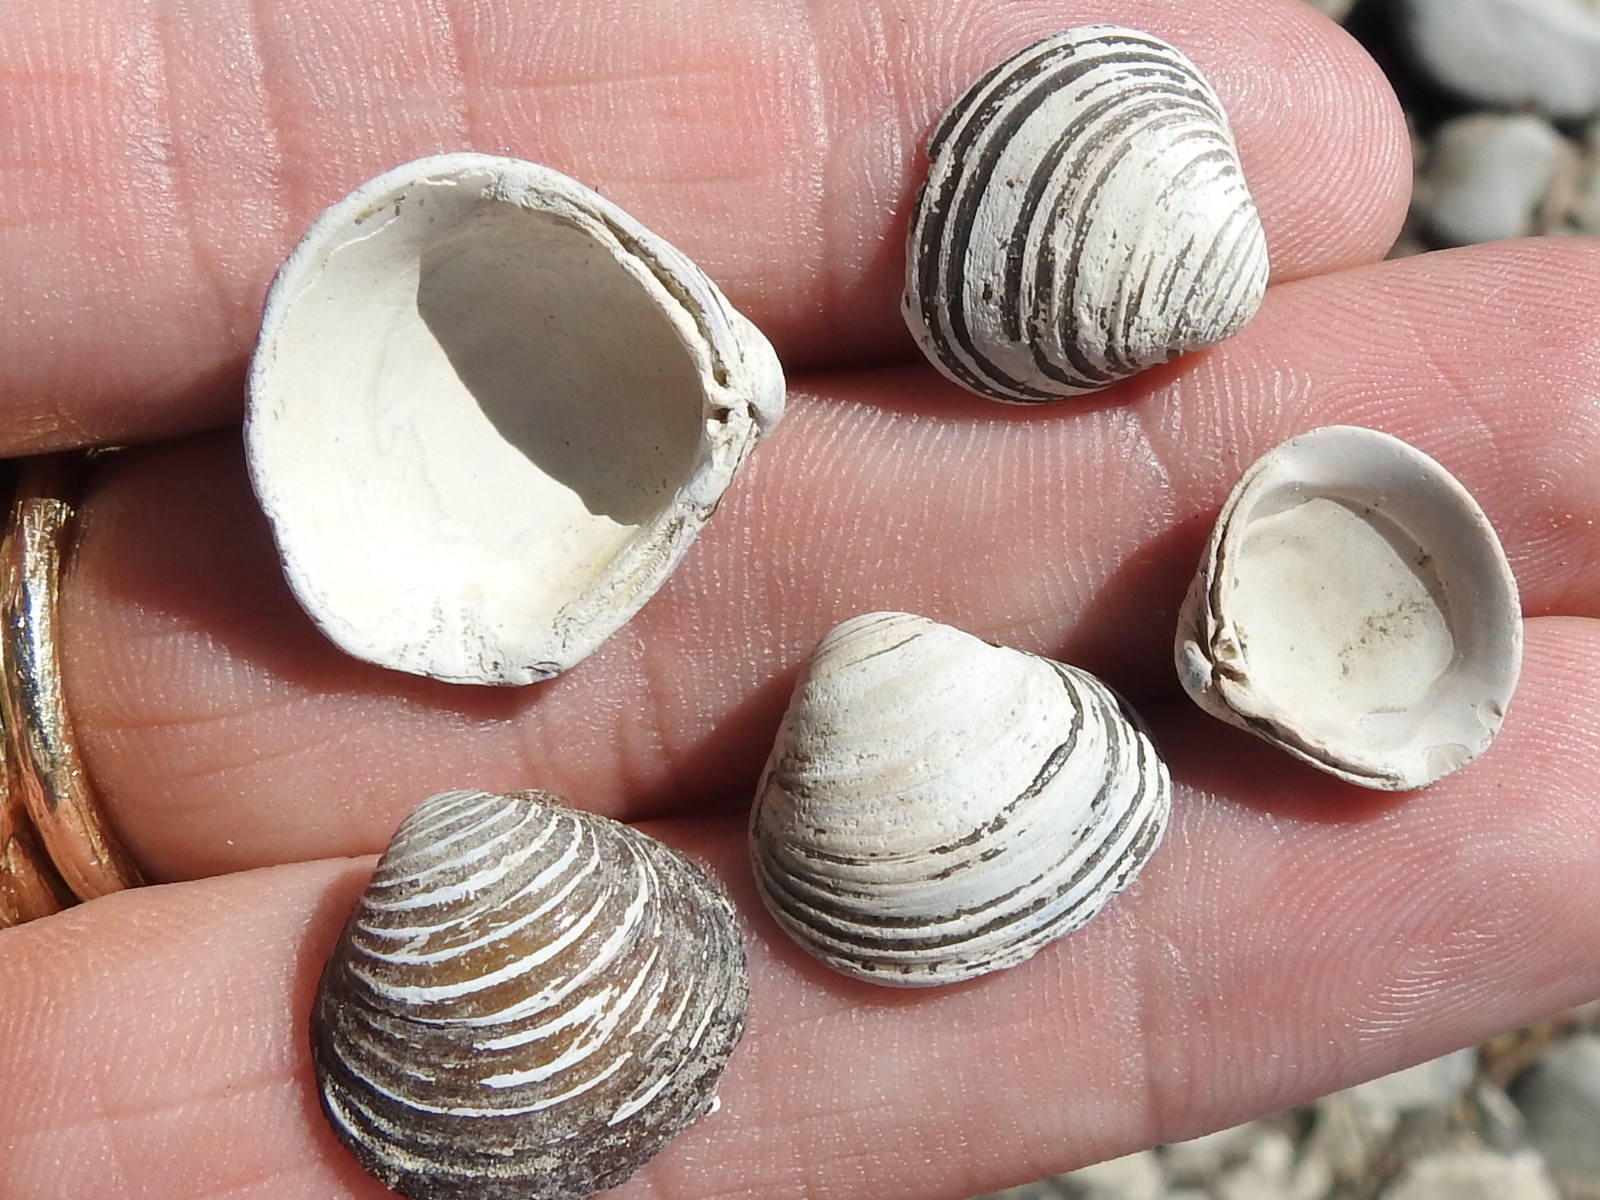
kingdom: Animalia
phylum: Mollusca
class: Bivalvia
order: Venerida
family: Cyrenidae
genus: Corbicula
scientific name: Corbicula fluminea
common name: Asian clam
